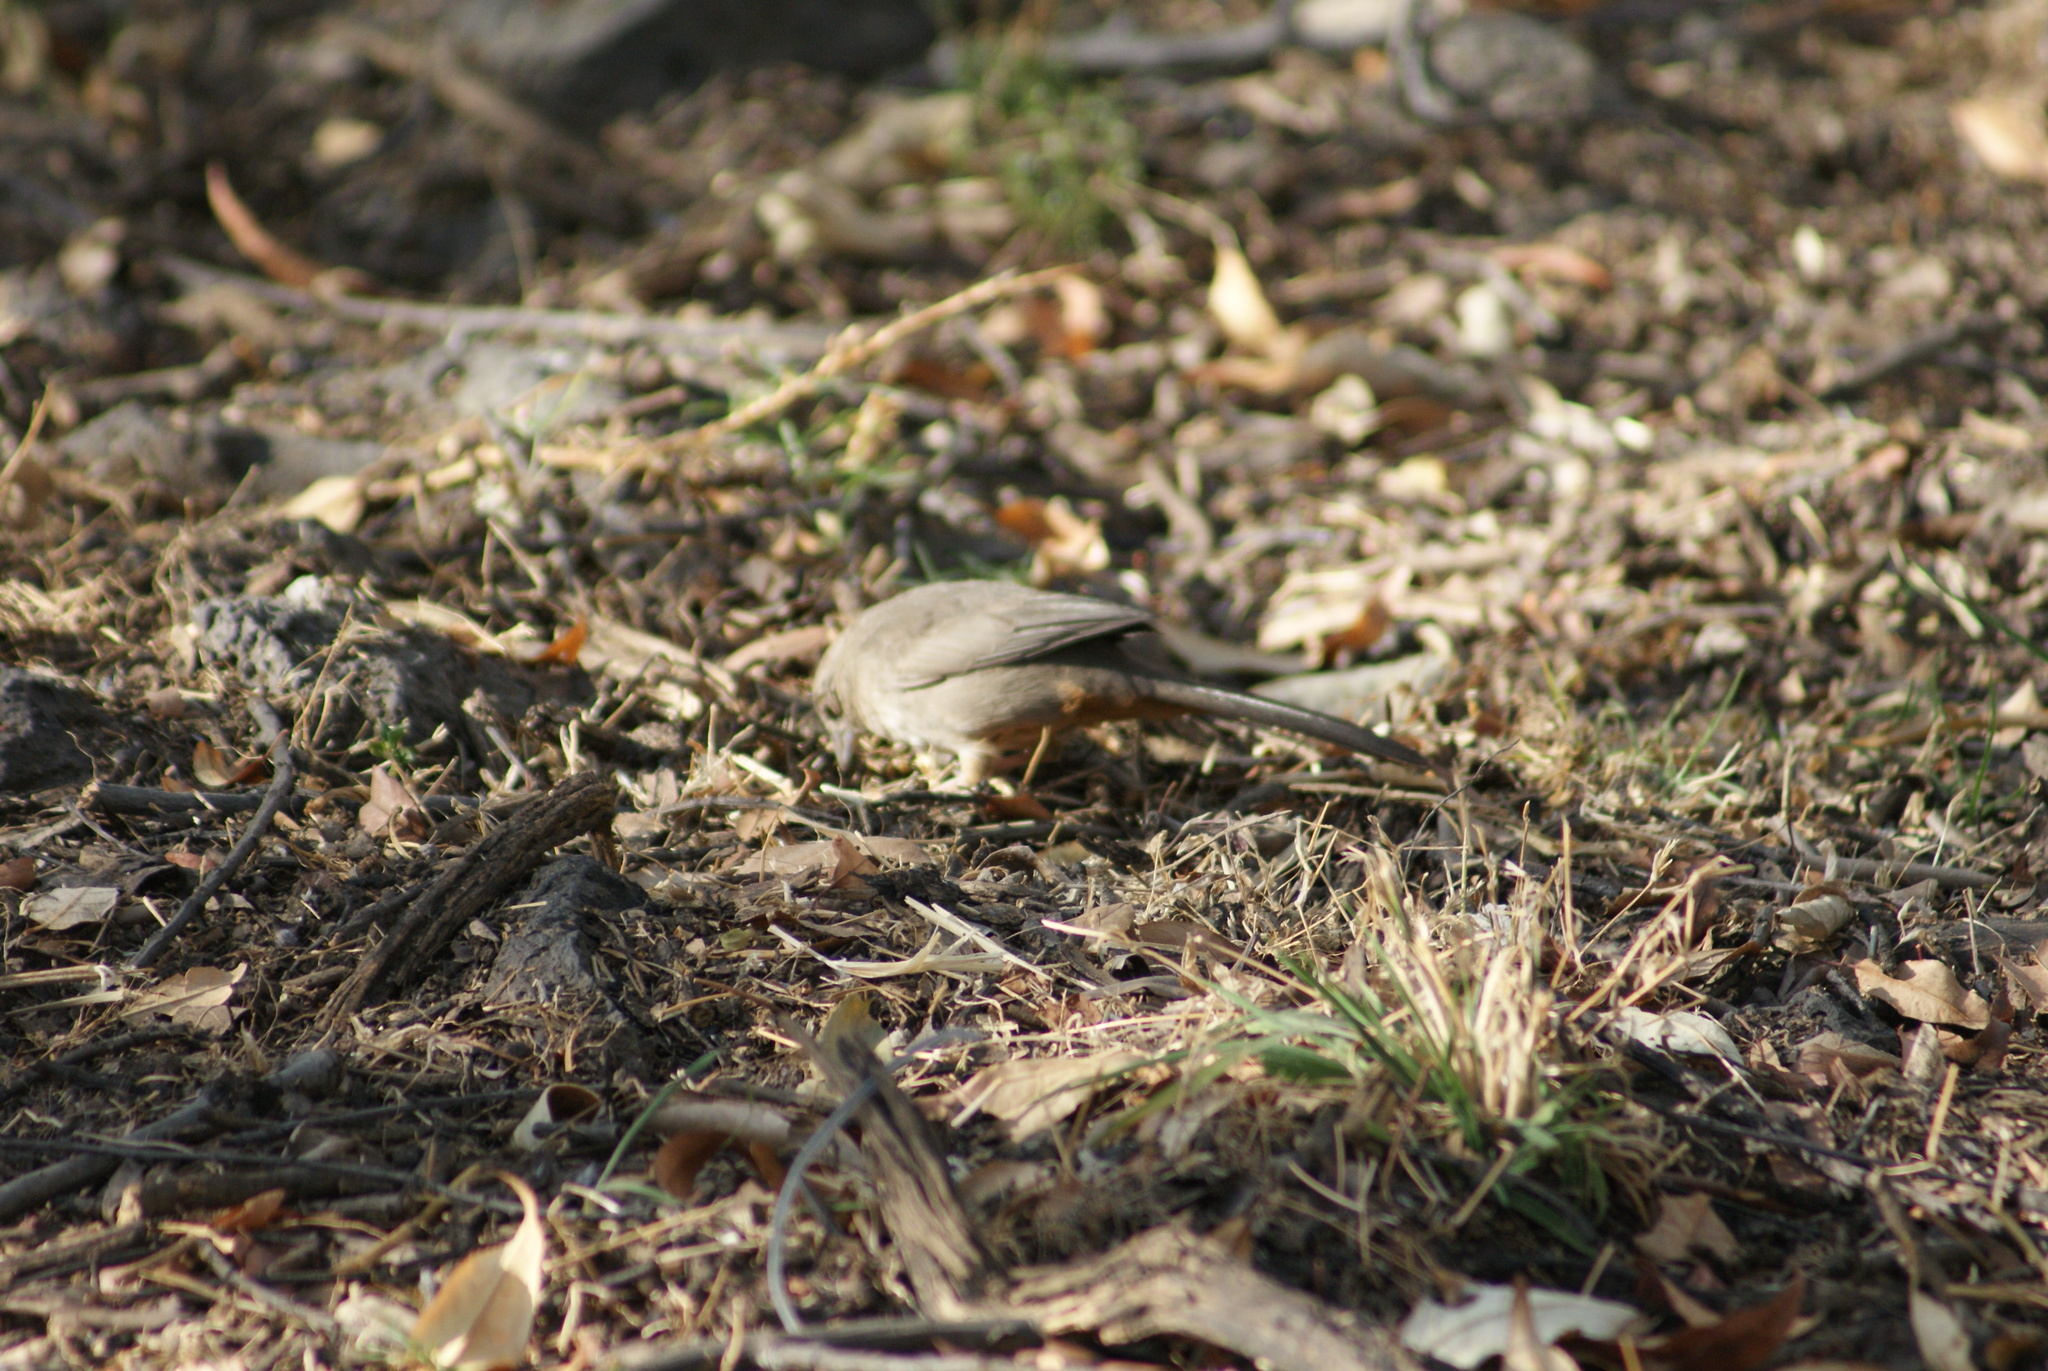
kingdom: Animalia
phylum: Chordata
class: Aves
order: Passeriformes
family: Passerellidae
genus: Melozone
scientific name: Melozone fusca
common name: Canyon towhee
